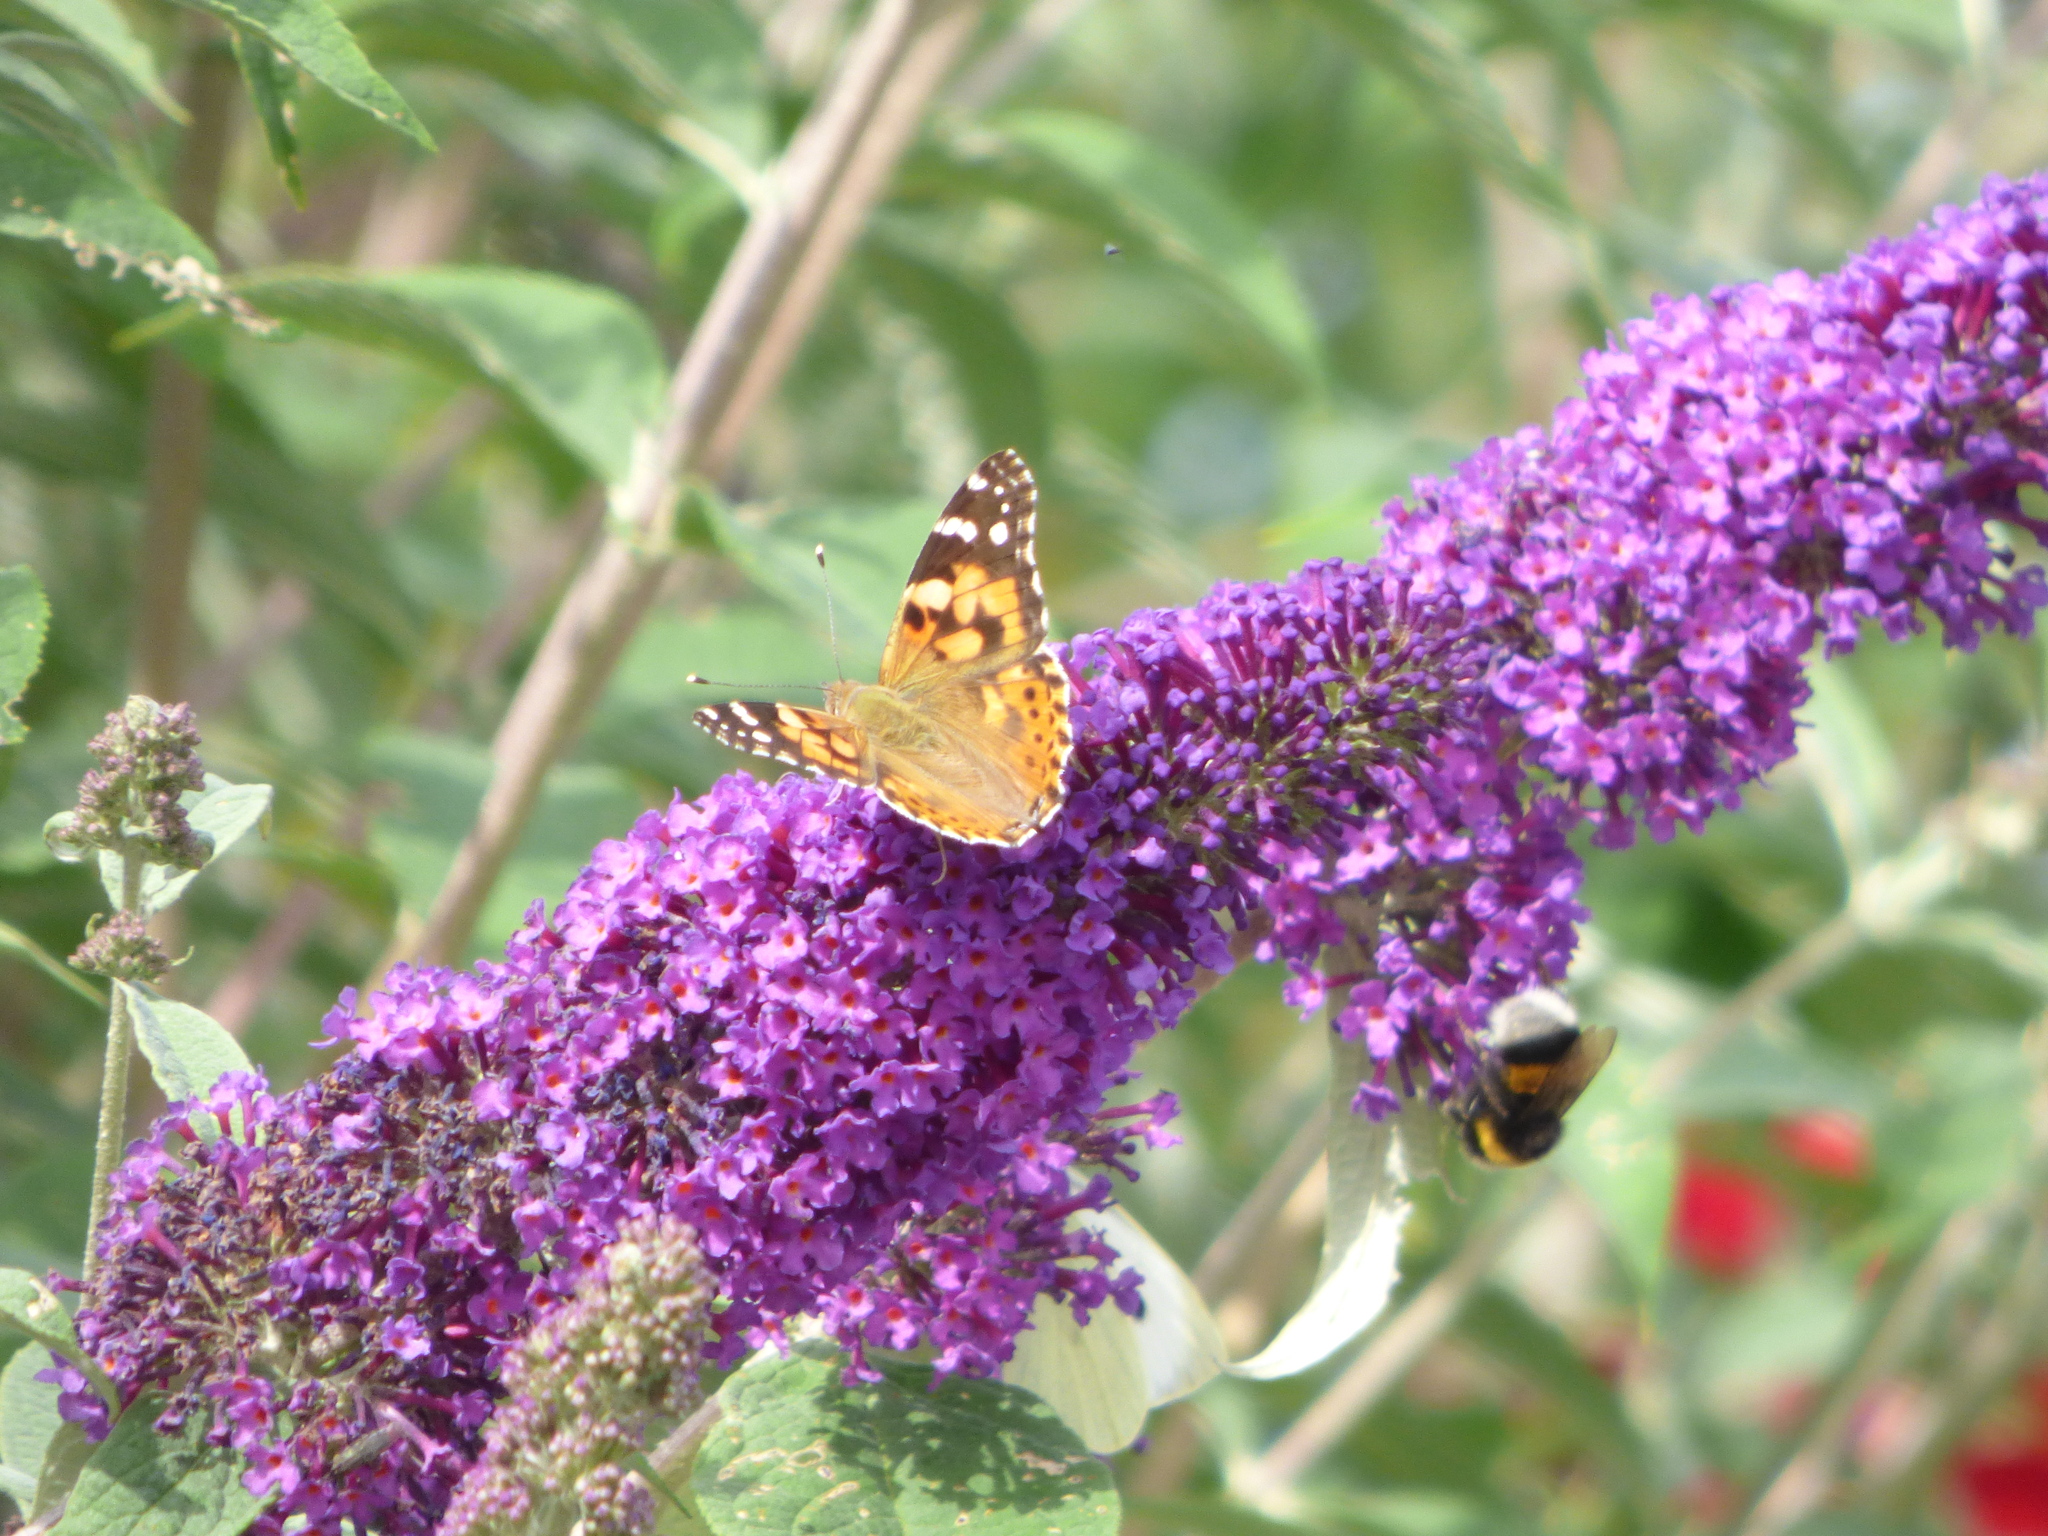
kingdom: Animalia
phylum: Arthropoda
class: Insecta
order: Lepidoptera
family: Nymphalidae
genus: Vanessa
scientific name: Vanessa cardui
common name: Painted lady
